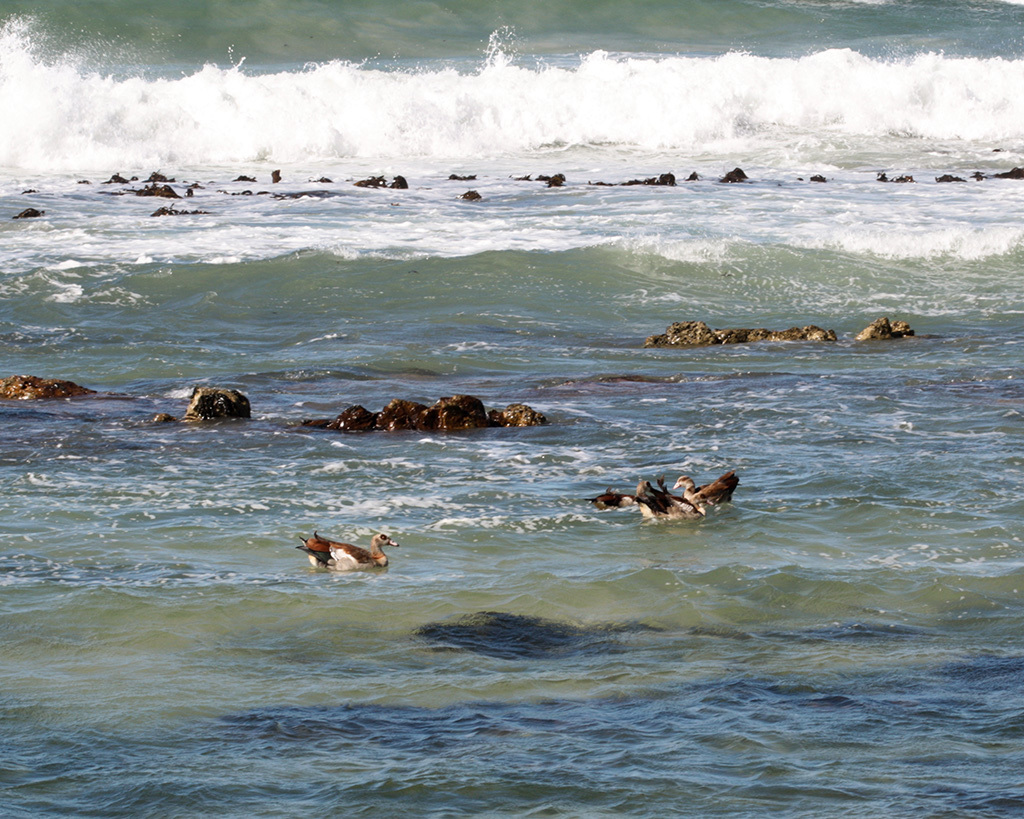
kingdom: Animalia
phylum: Chordata
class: Aves
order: Anseriformes
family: Anatidae
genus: Alopochen
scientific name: Alopochen aegyptiaca
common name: Egyptian goose
